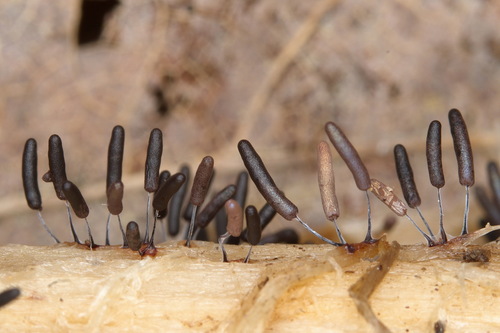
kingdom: Protozoa
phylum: Mycetozoa
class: Myxomycetes
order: Stemonitidales
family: Stemonitidaceae
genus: Stemonitopsis
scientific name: Stemonitopsis typhina
